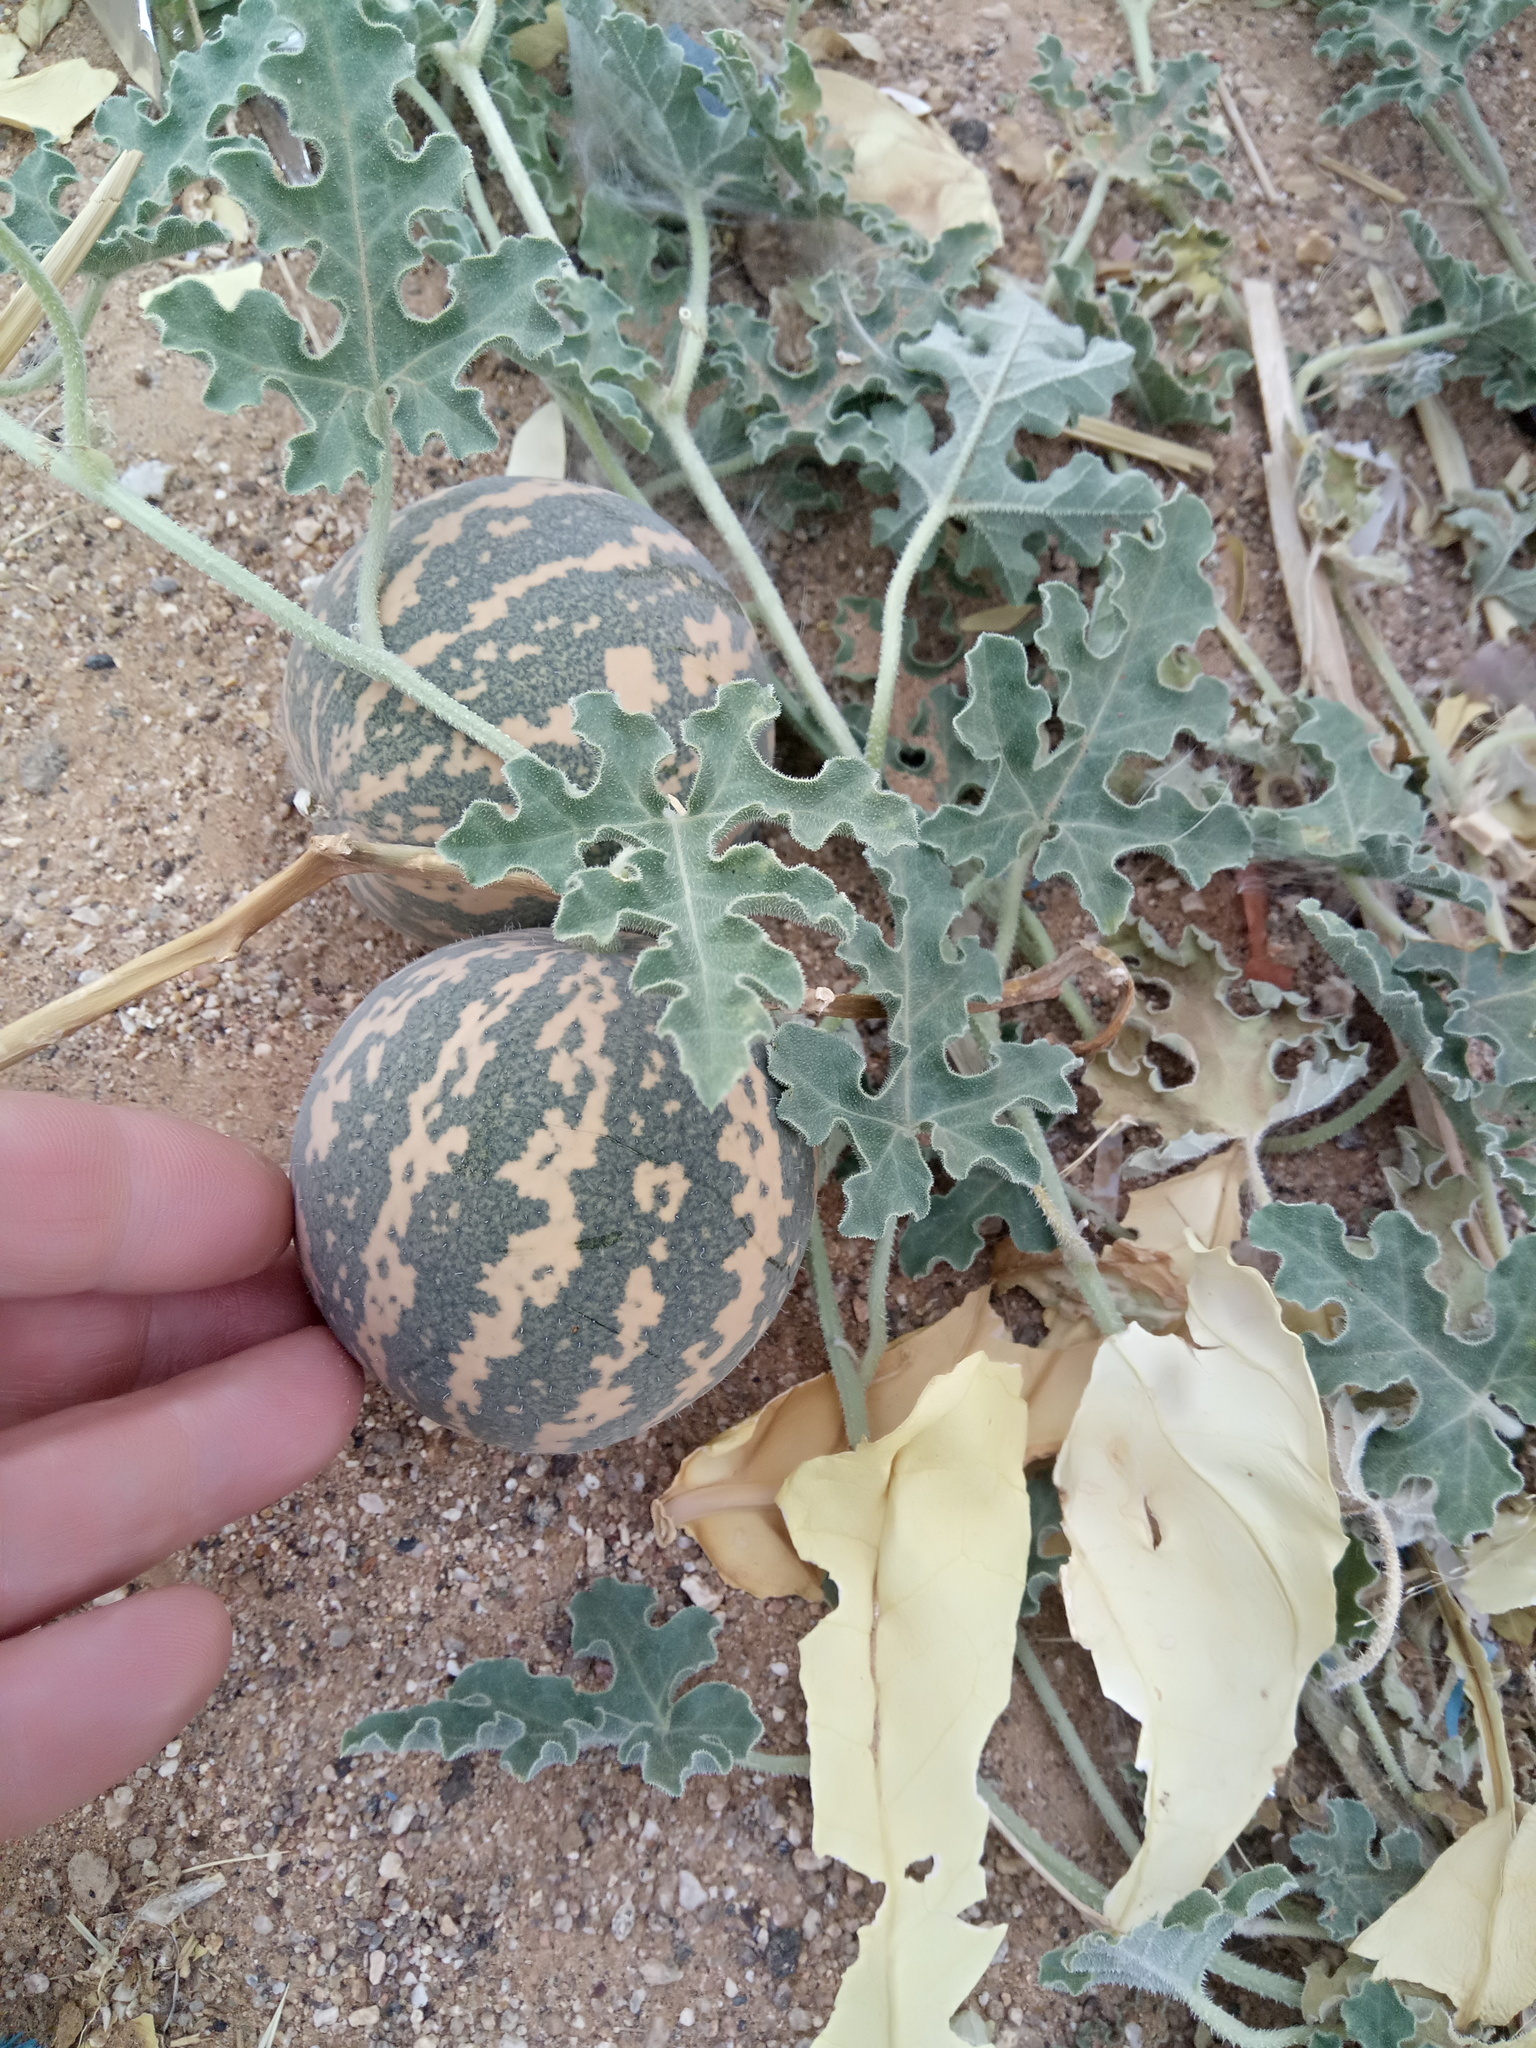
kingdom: Plantae
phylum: Tracheophyta
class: Magnoliopsida
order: Cucurbitales
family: Cucurbitaceae
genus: Citrullus
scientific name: Citrullus colocynthis
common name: Colocynth
